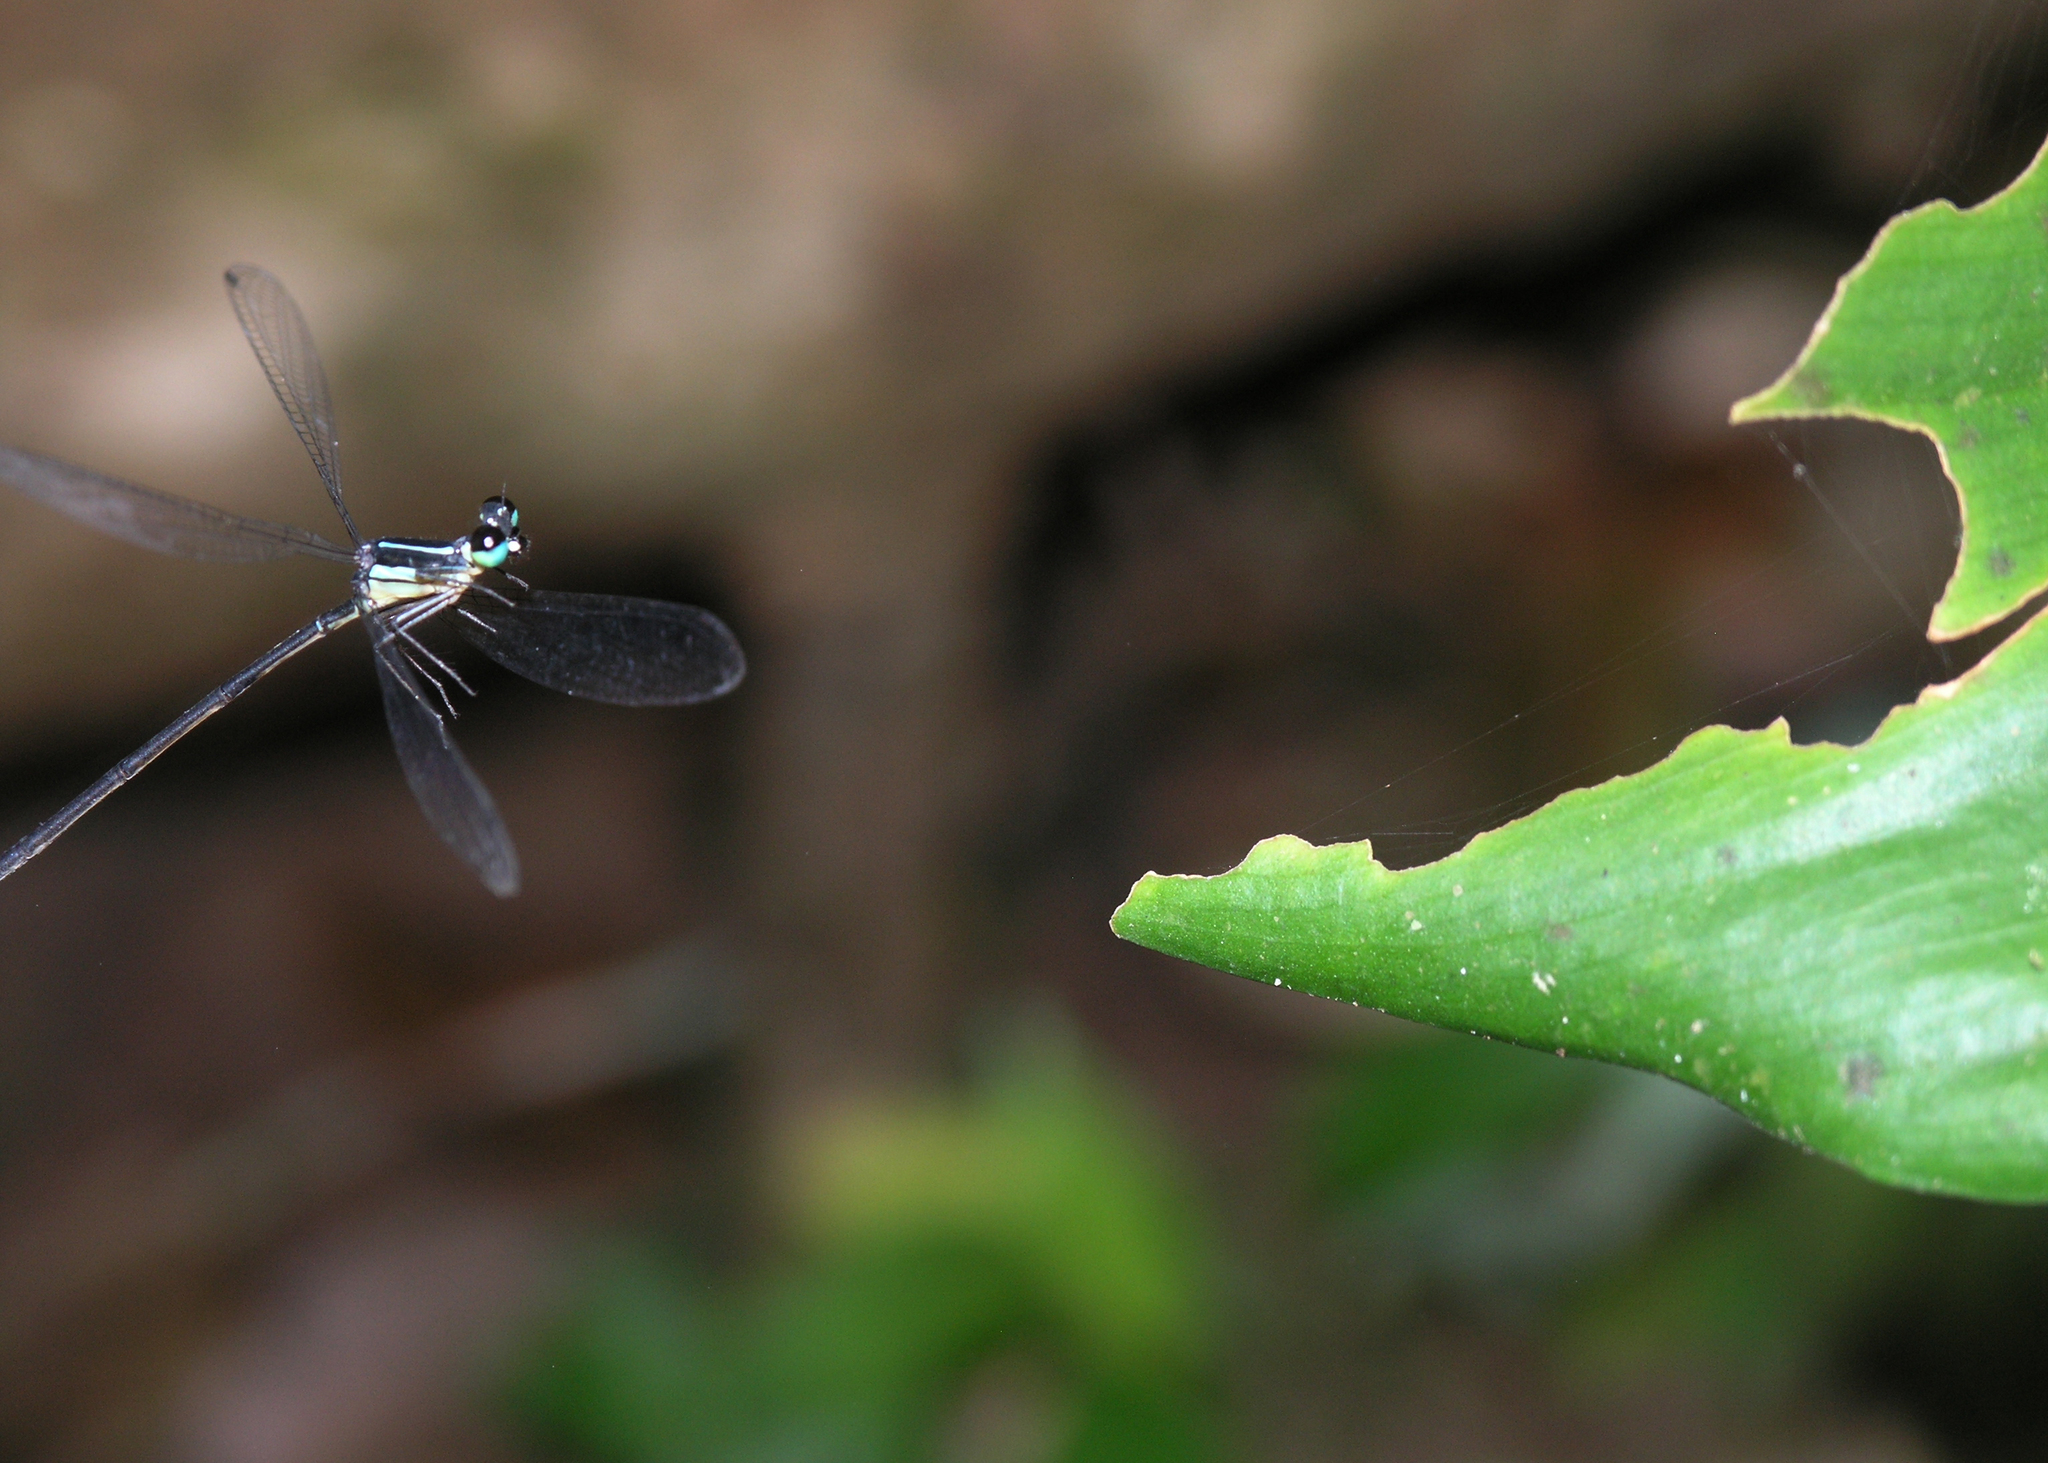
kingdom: Animalia
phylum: Arthropoda
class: Insecta
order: Odonata
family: Platycnemididae
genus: Coeliccia
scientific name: Coeliccia yamasakii
